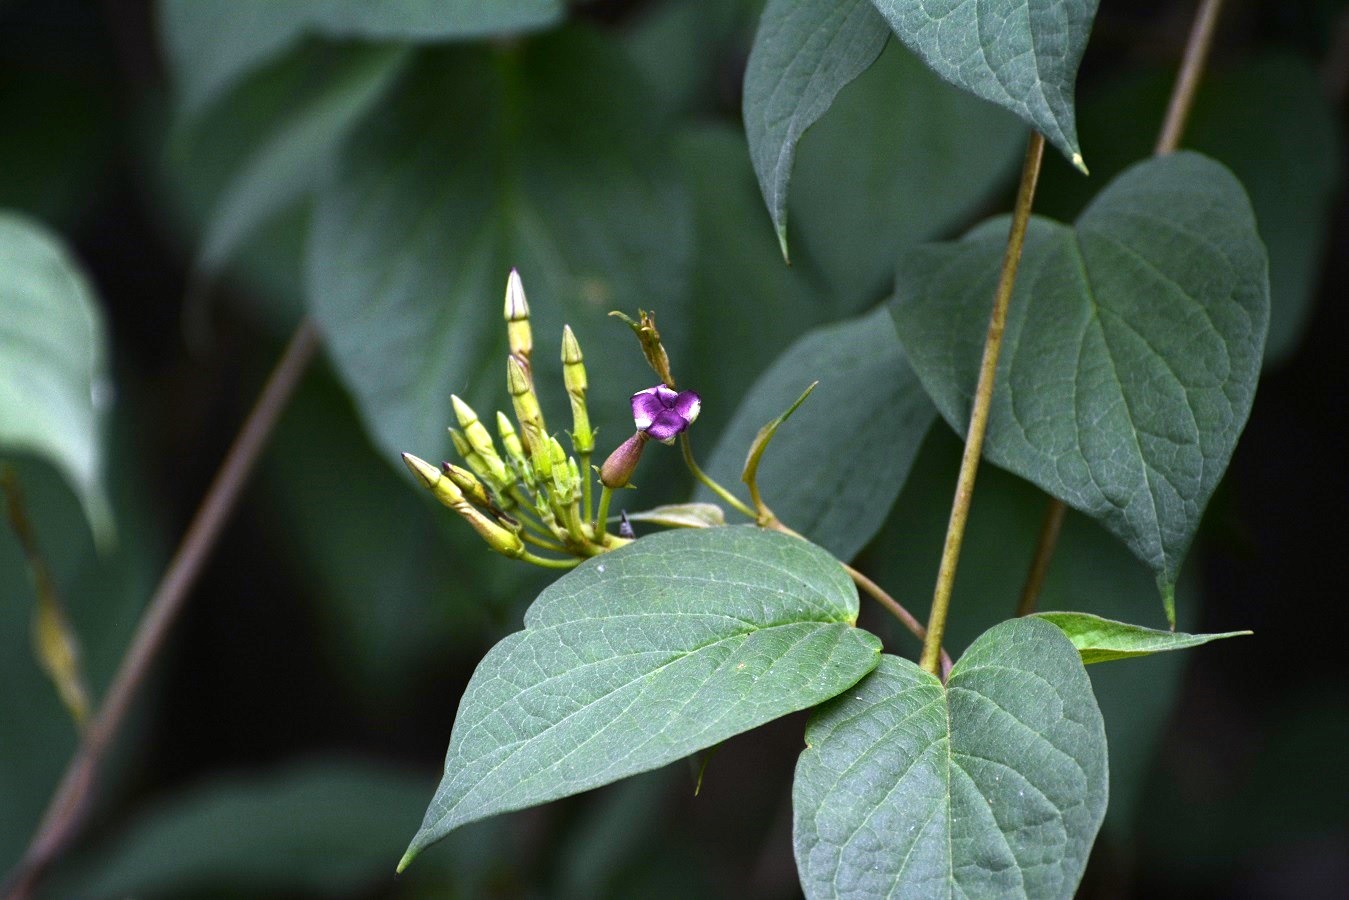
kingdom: Plantae
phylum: Tracheophyta
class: Magnoliopsida
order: Gentianales
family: Apocynaceae
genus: Laubertia
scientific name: Laubertia contorta
